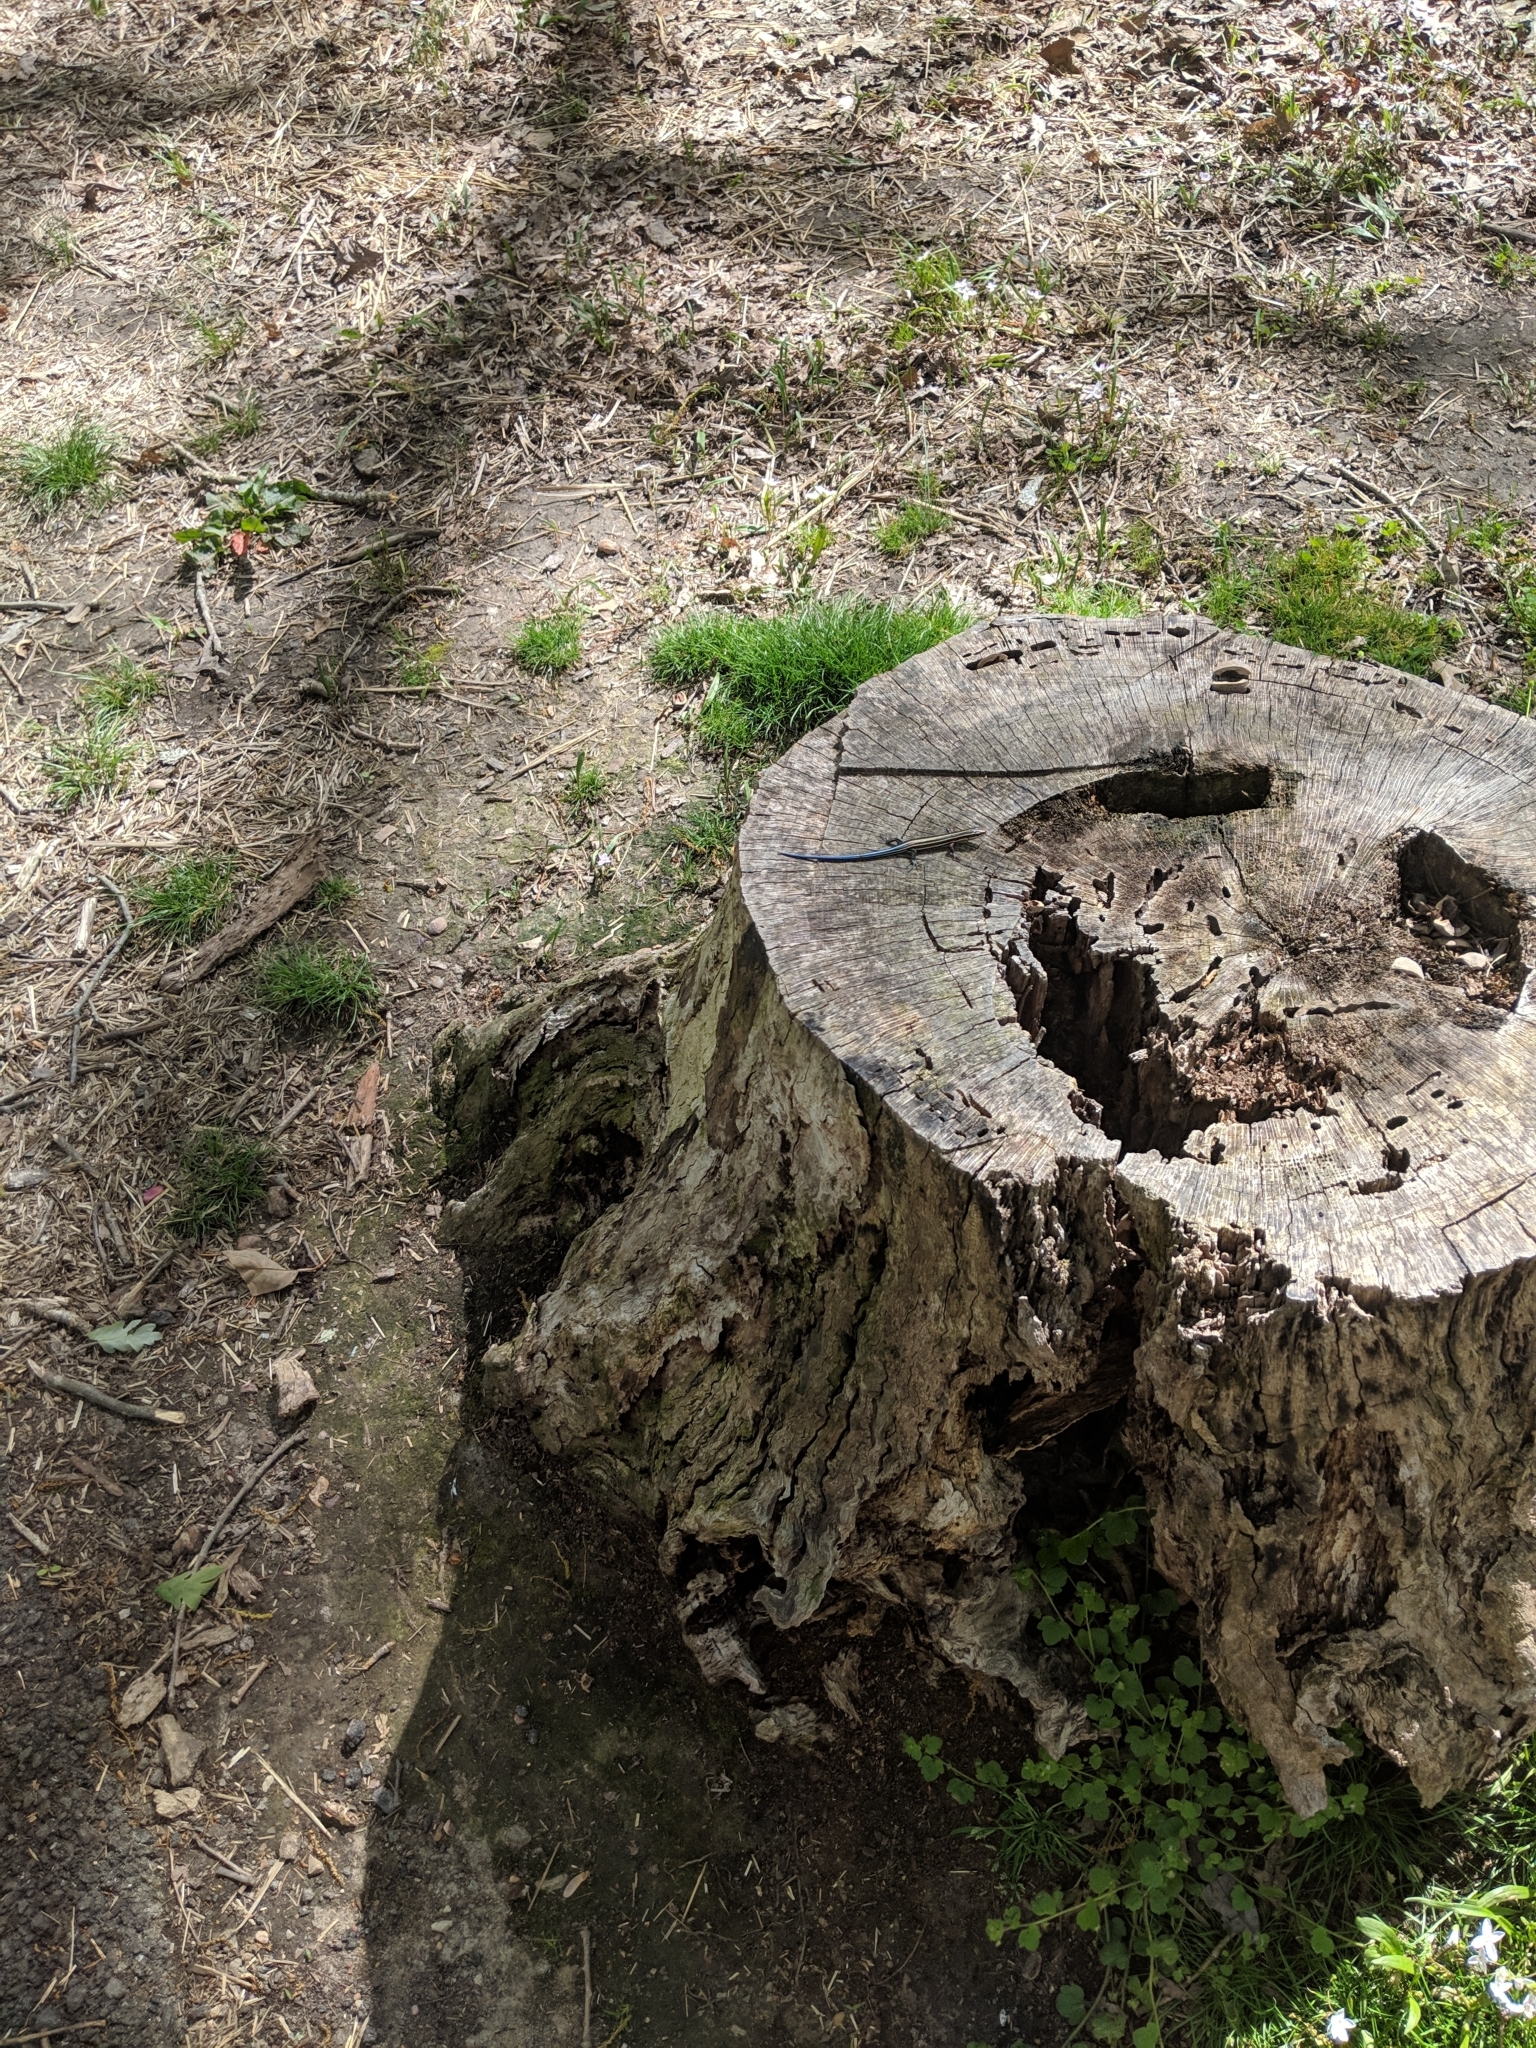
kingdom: Animalia
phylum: Chordata
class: Squamata
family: Scincidae
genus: Plestiodon
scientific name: Plestiodon fasciatus
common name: Five-lined skink
